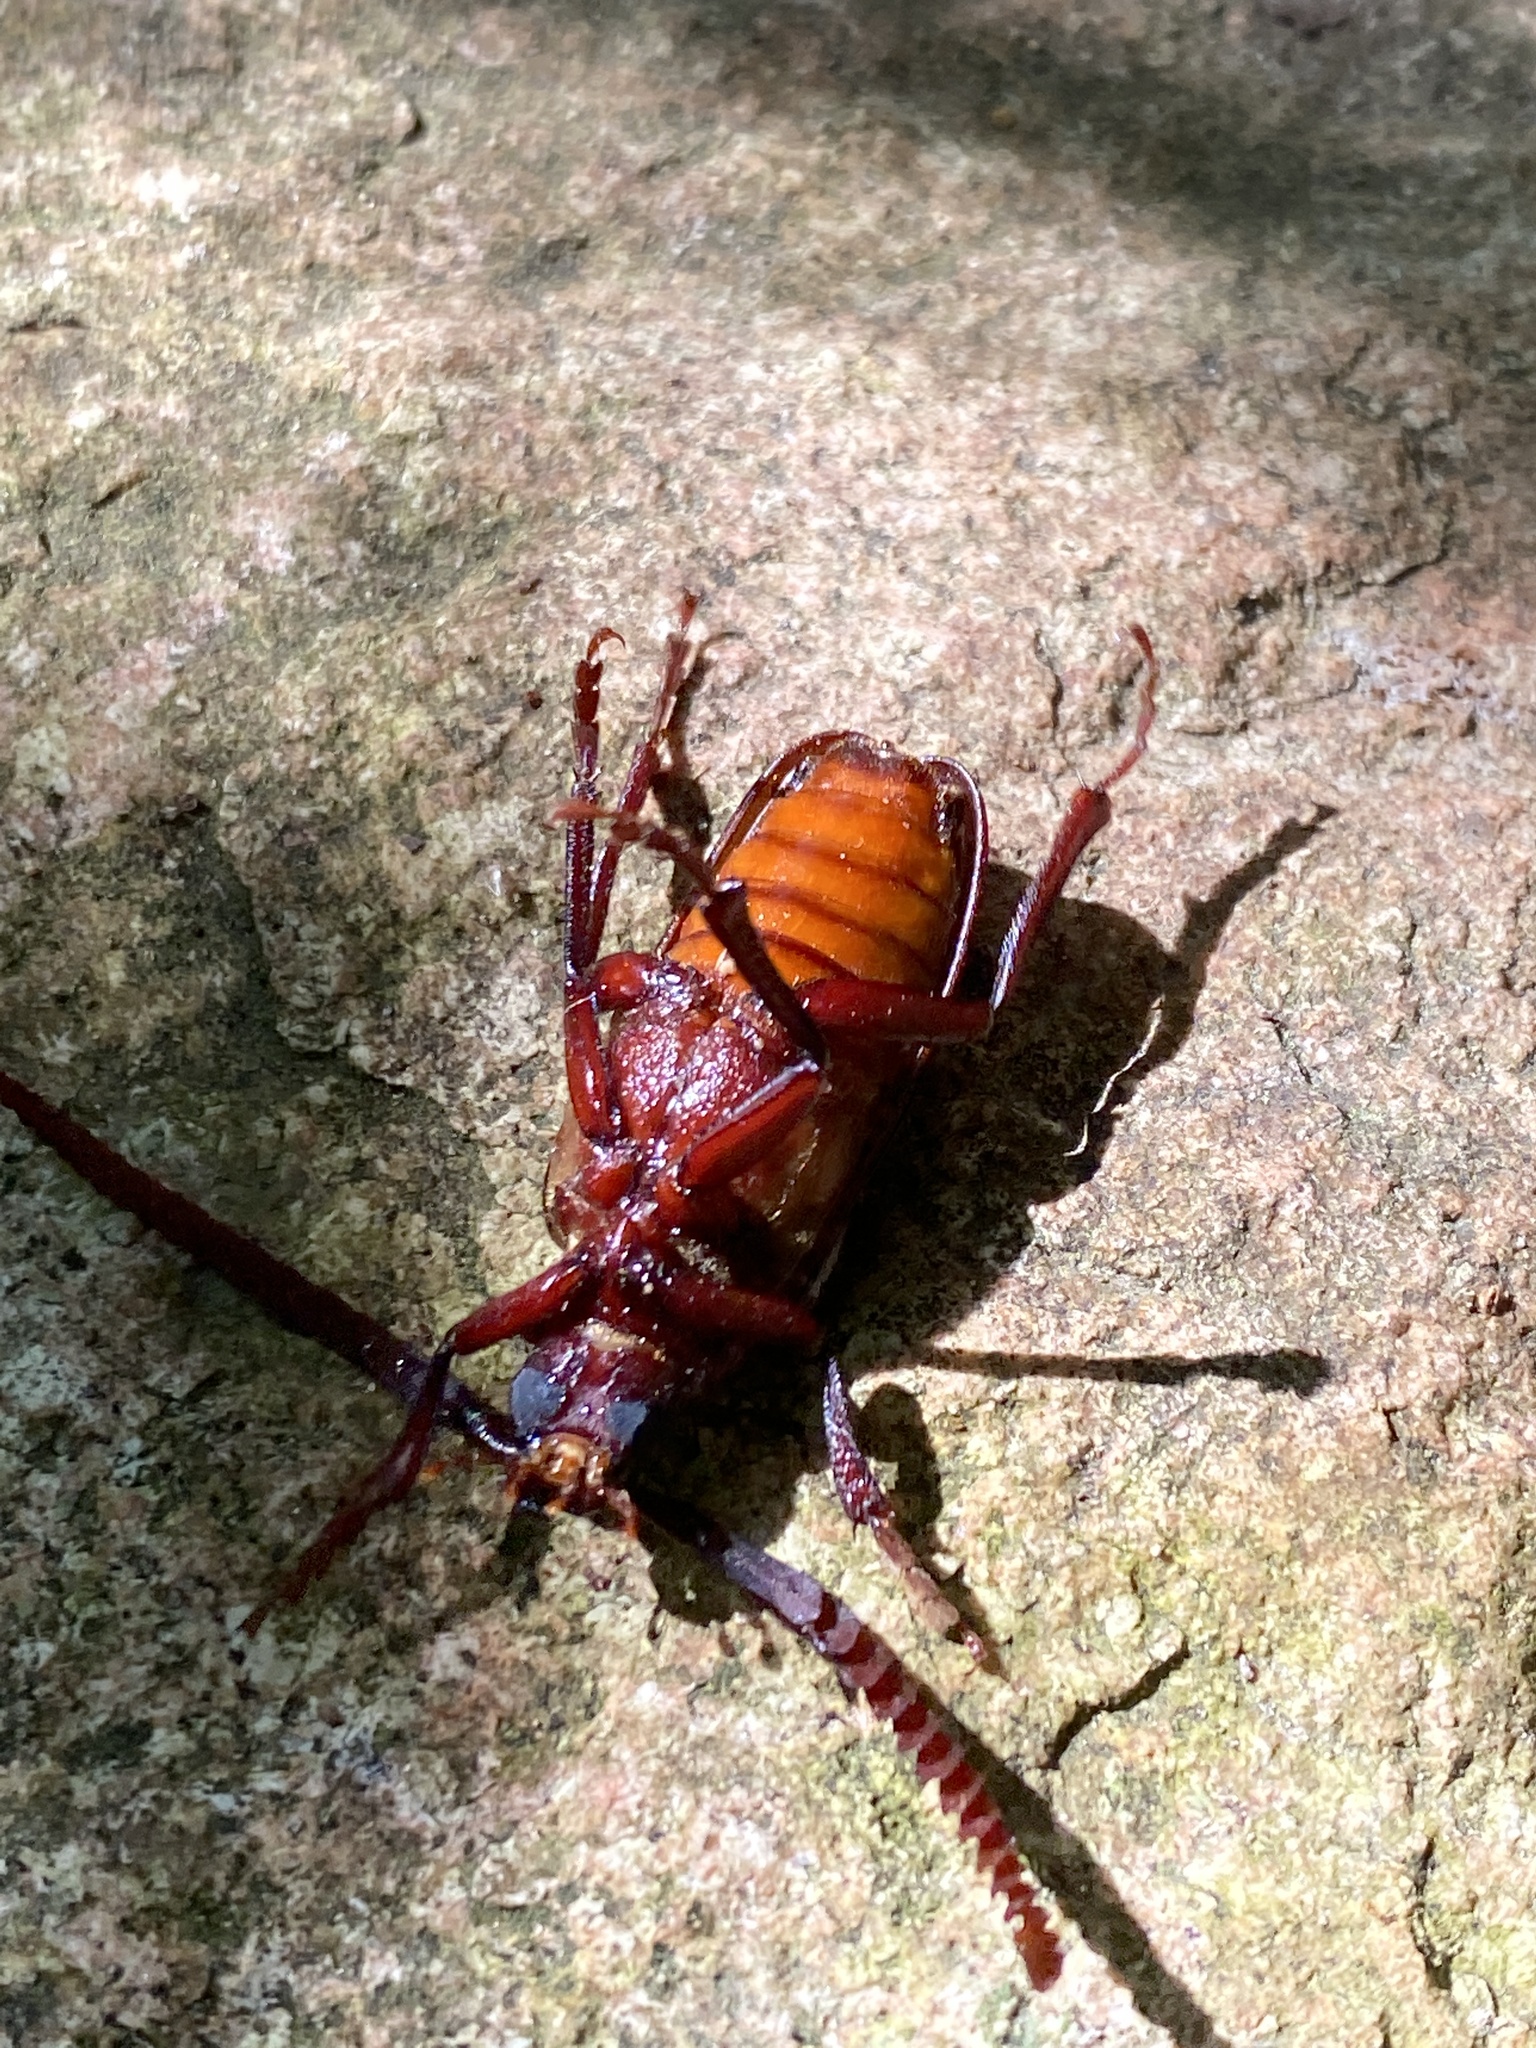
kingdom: Animalia
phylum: Arthropoda
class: Insecta
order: Coleoptera
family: Cerambycidae
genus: Prionus
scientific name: Prionus imbricornis
